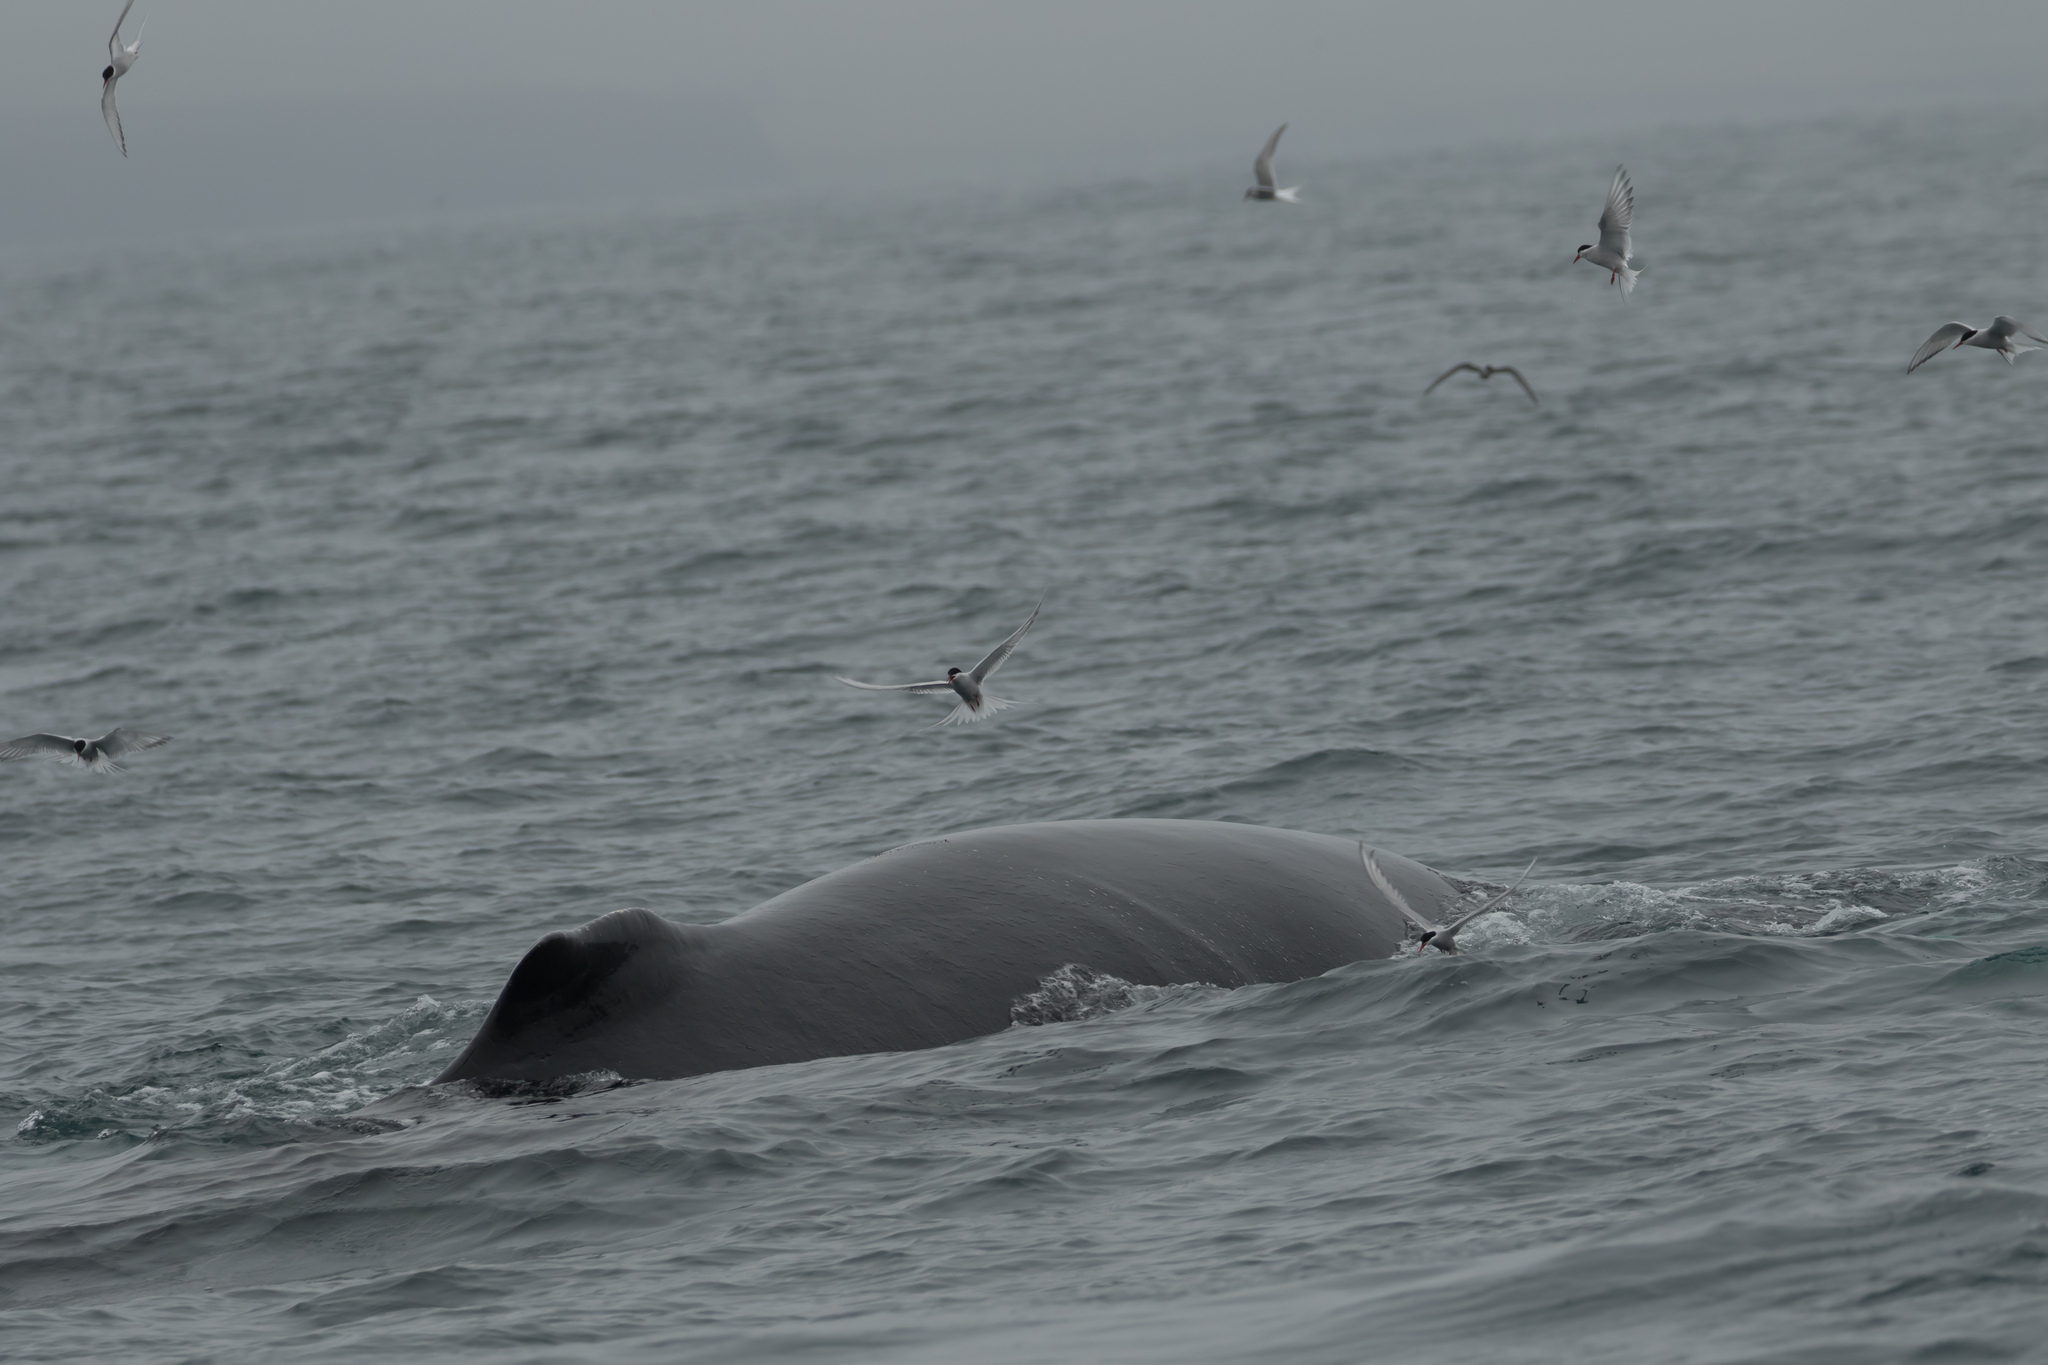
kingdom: Animalia
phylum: Chordata
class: Aves
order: Charadriiformes
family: Laridae
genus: Sterna
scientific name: Sterna paradisaea
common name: Arctic tern
